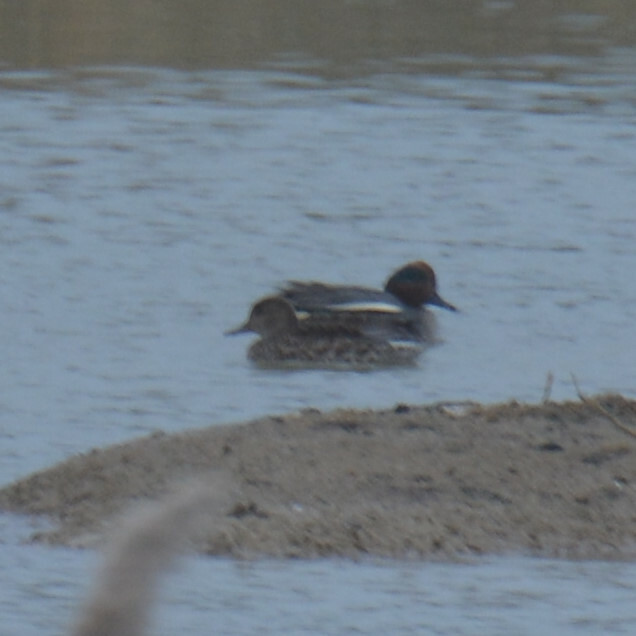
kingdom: Animalia
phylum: Chordata
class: Aves
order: Anseriformes
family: Anatidae
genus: Anas
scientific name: Anas crecca
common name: Eurasian teal
